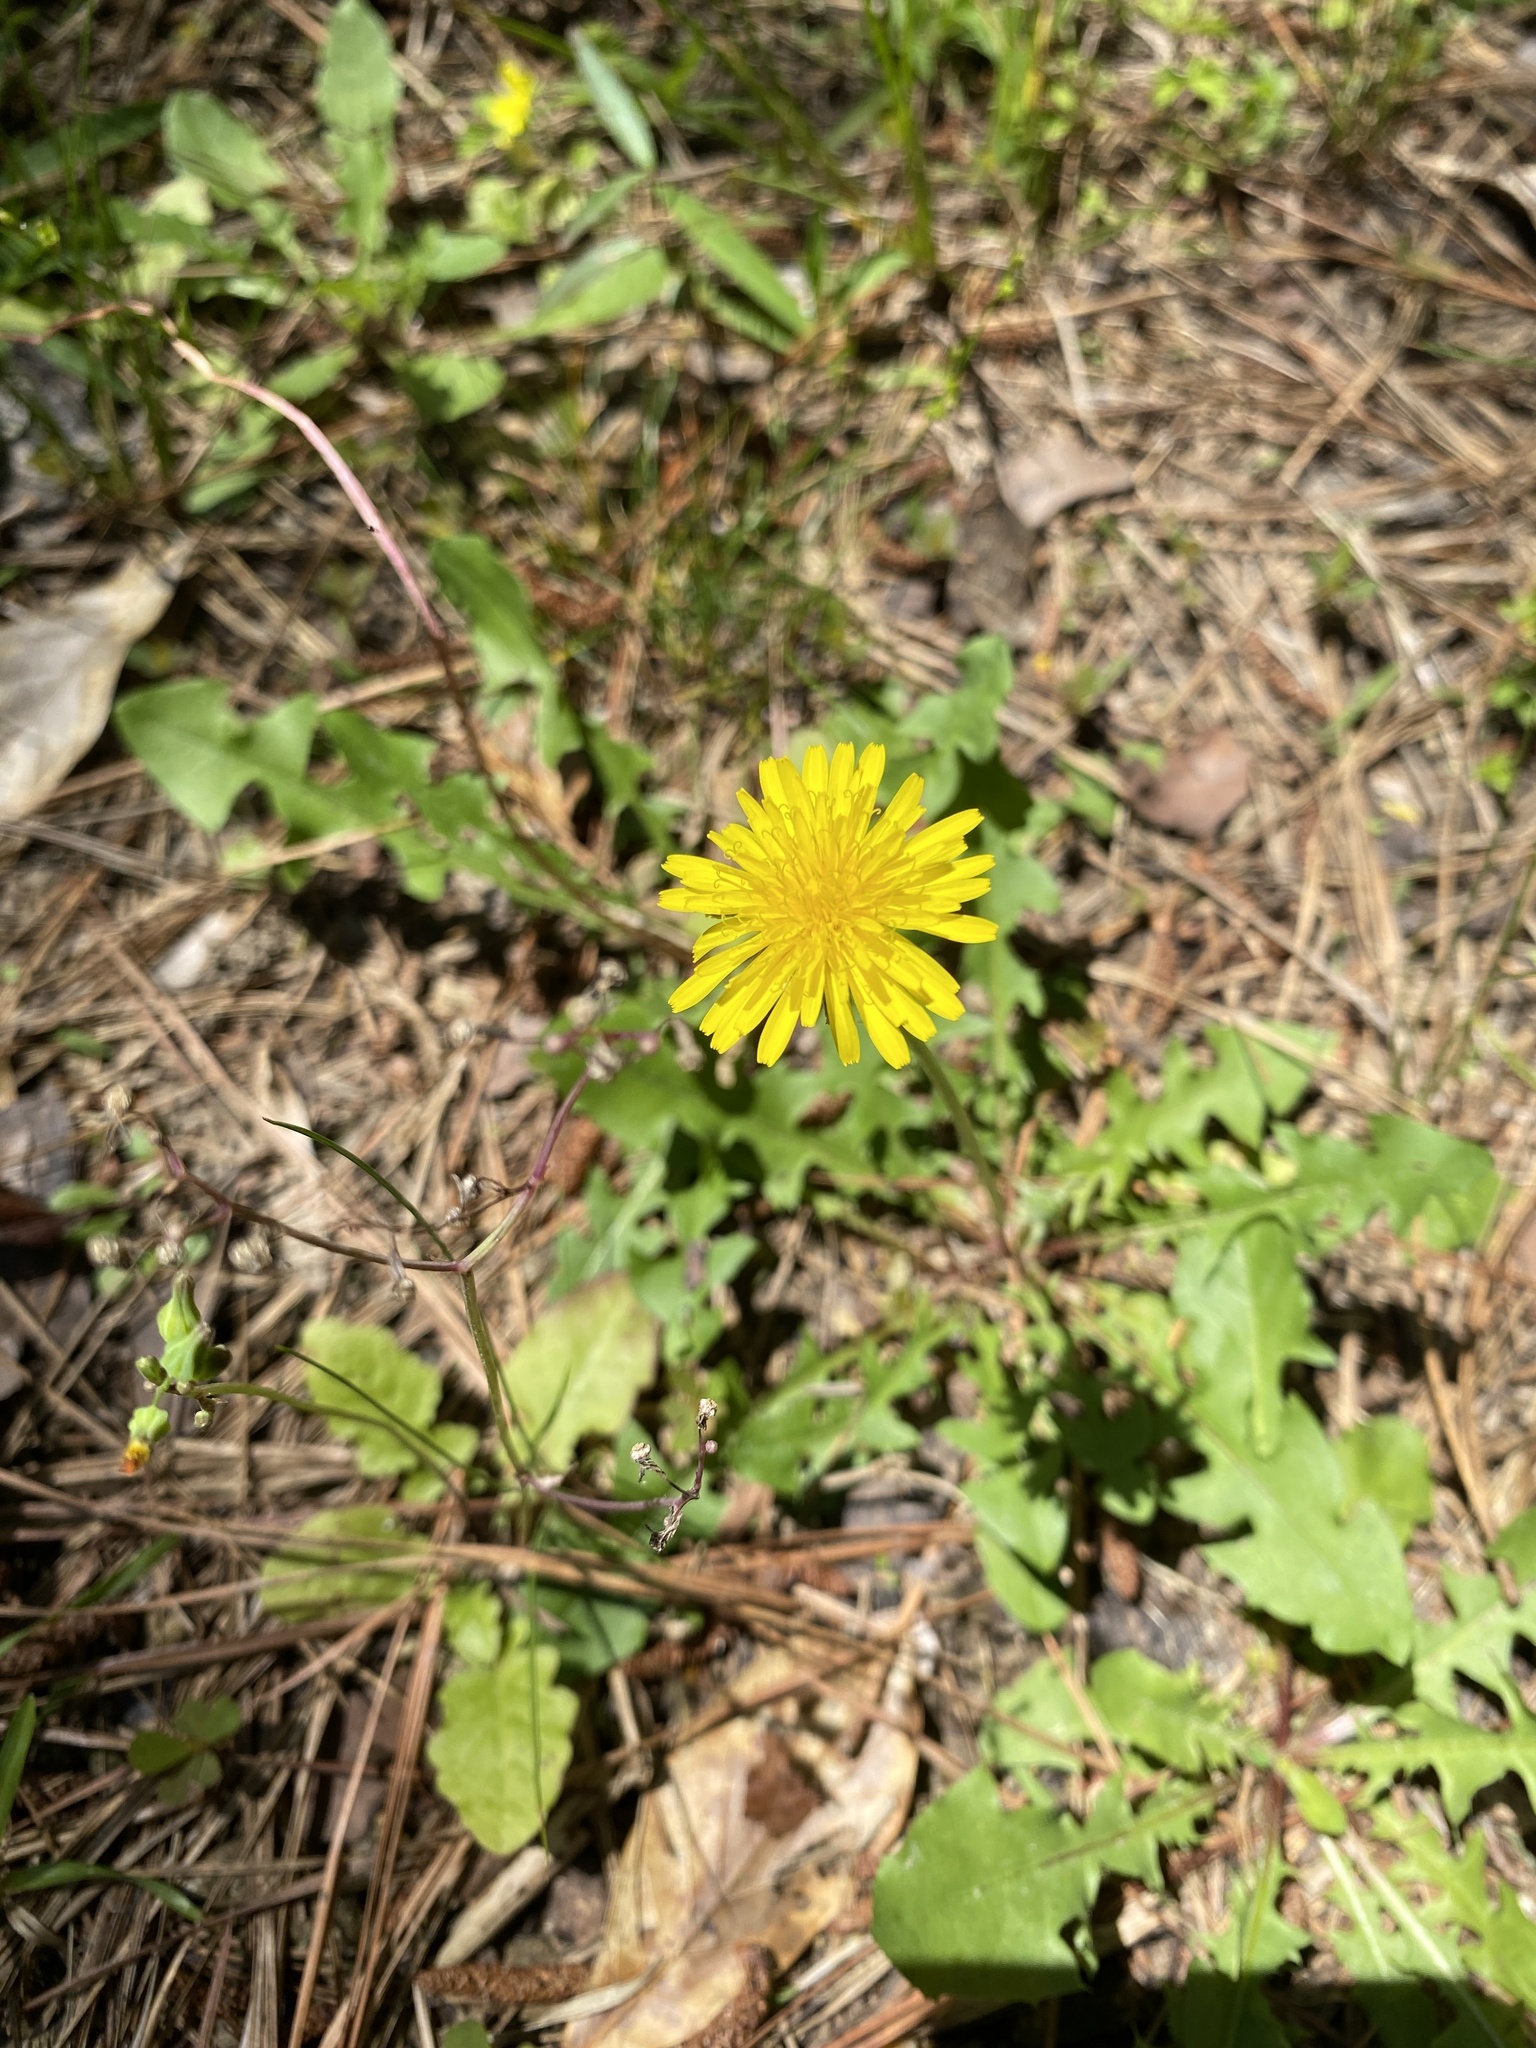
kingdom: Plantae
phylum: Tracheophyta
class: Magnoliopsida
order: Asterales
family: Asteraceae
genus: Taraxacum
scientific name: Taraxacum officinale
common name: Common dandelion
